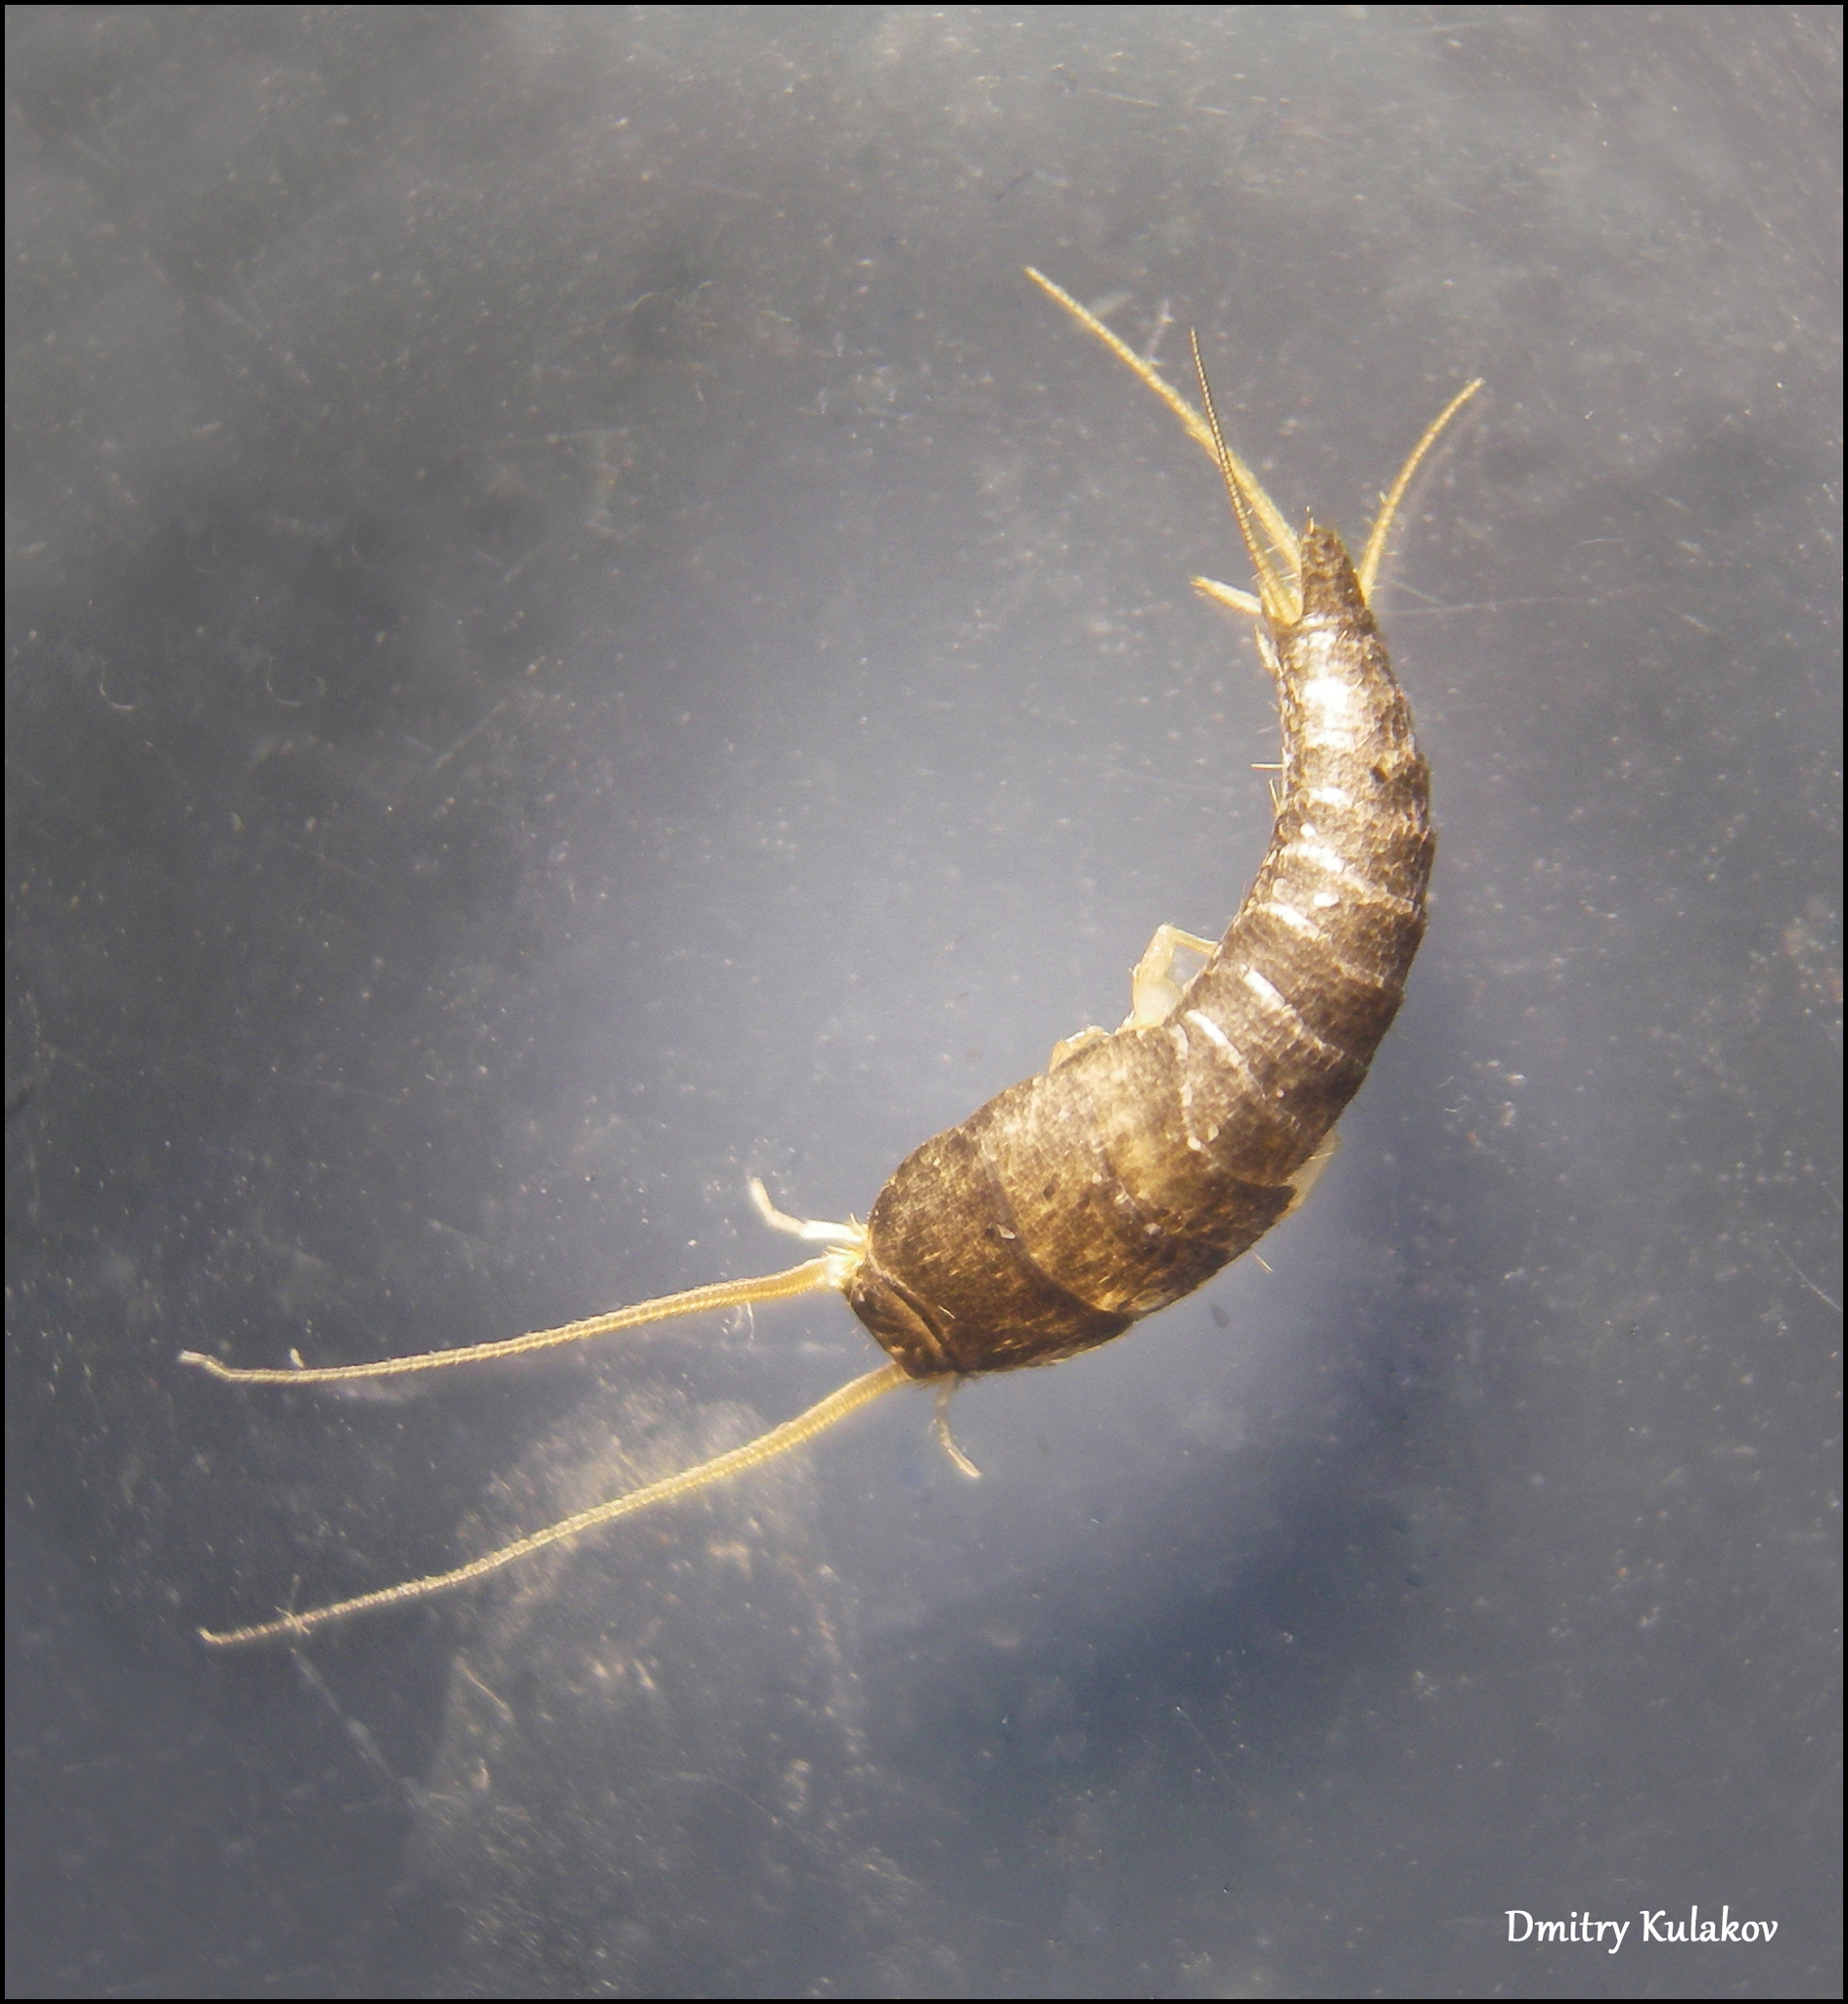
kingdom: Animalia
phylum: Arthropoda
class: Insecta
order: Zygentoma
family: Lepismatidae
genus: Lepisma
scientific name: Lepisma saccharinum
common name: Silverfish
